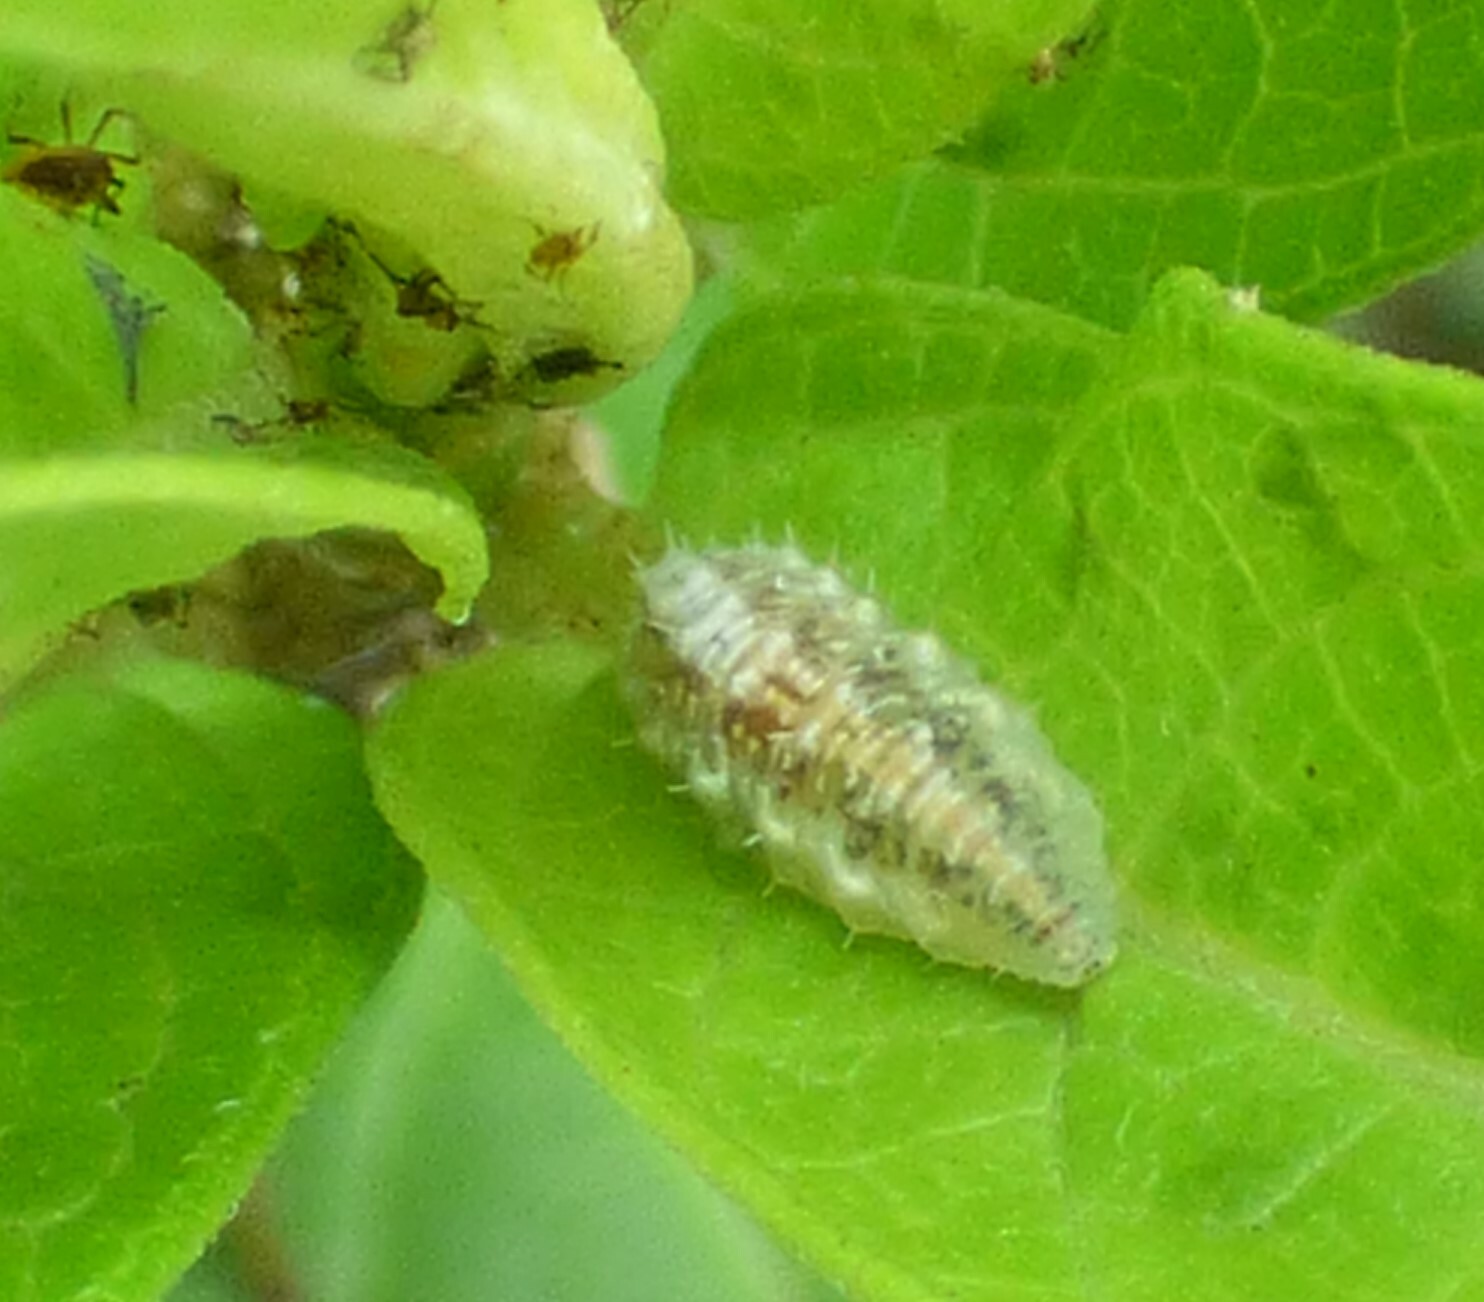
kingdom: Animalia
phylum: Arthropoda
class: Insecta
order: Diptera
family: Syrphidae
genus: Dioprosopa
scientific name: Dioprosopa clavatus
